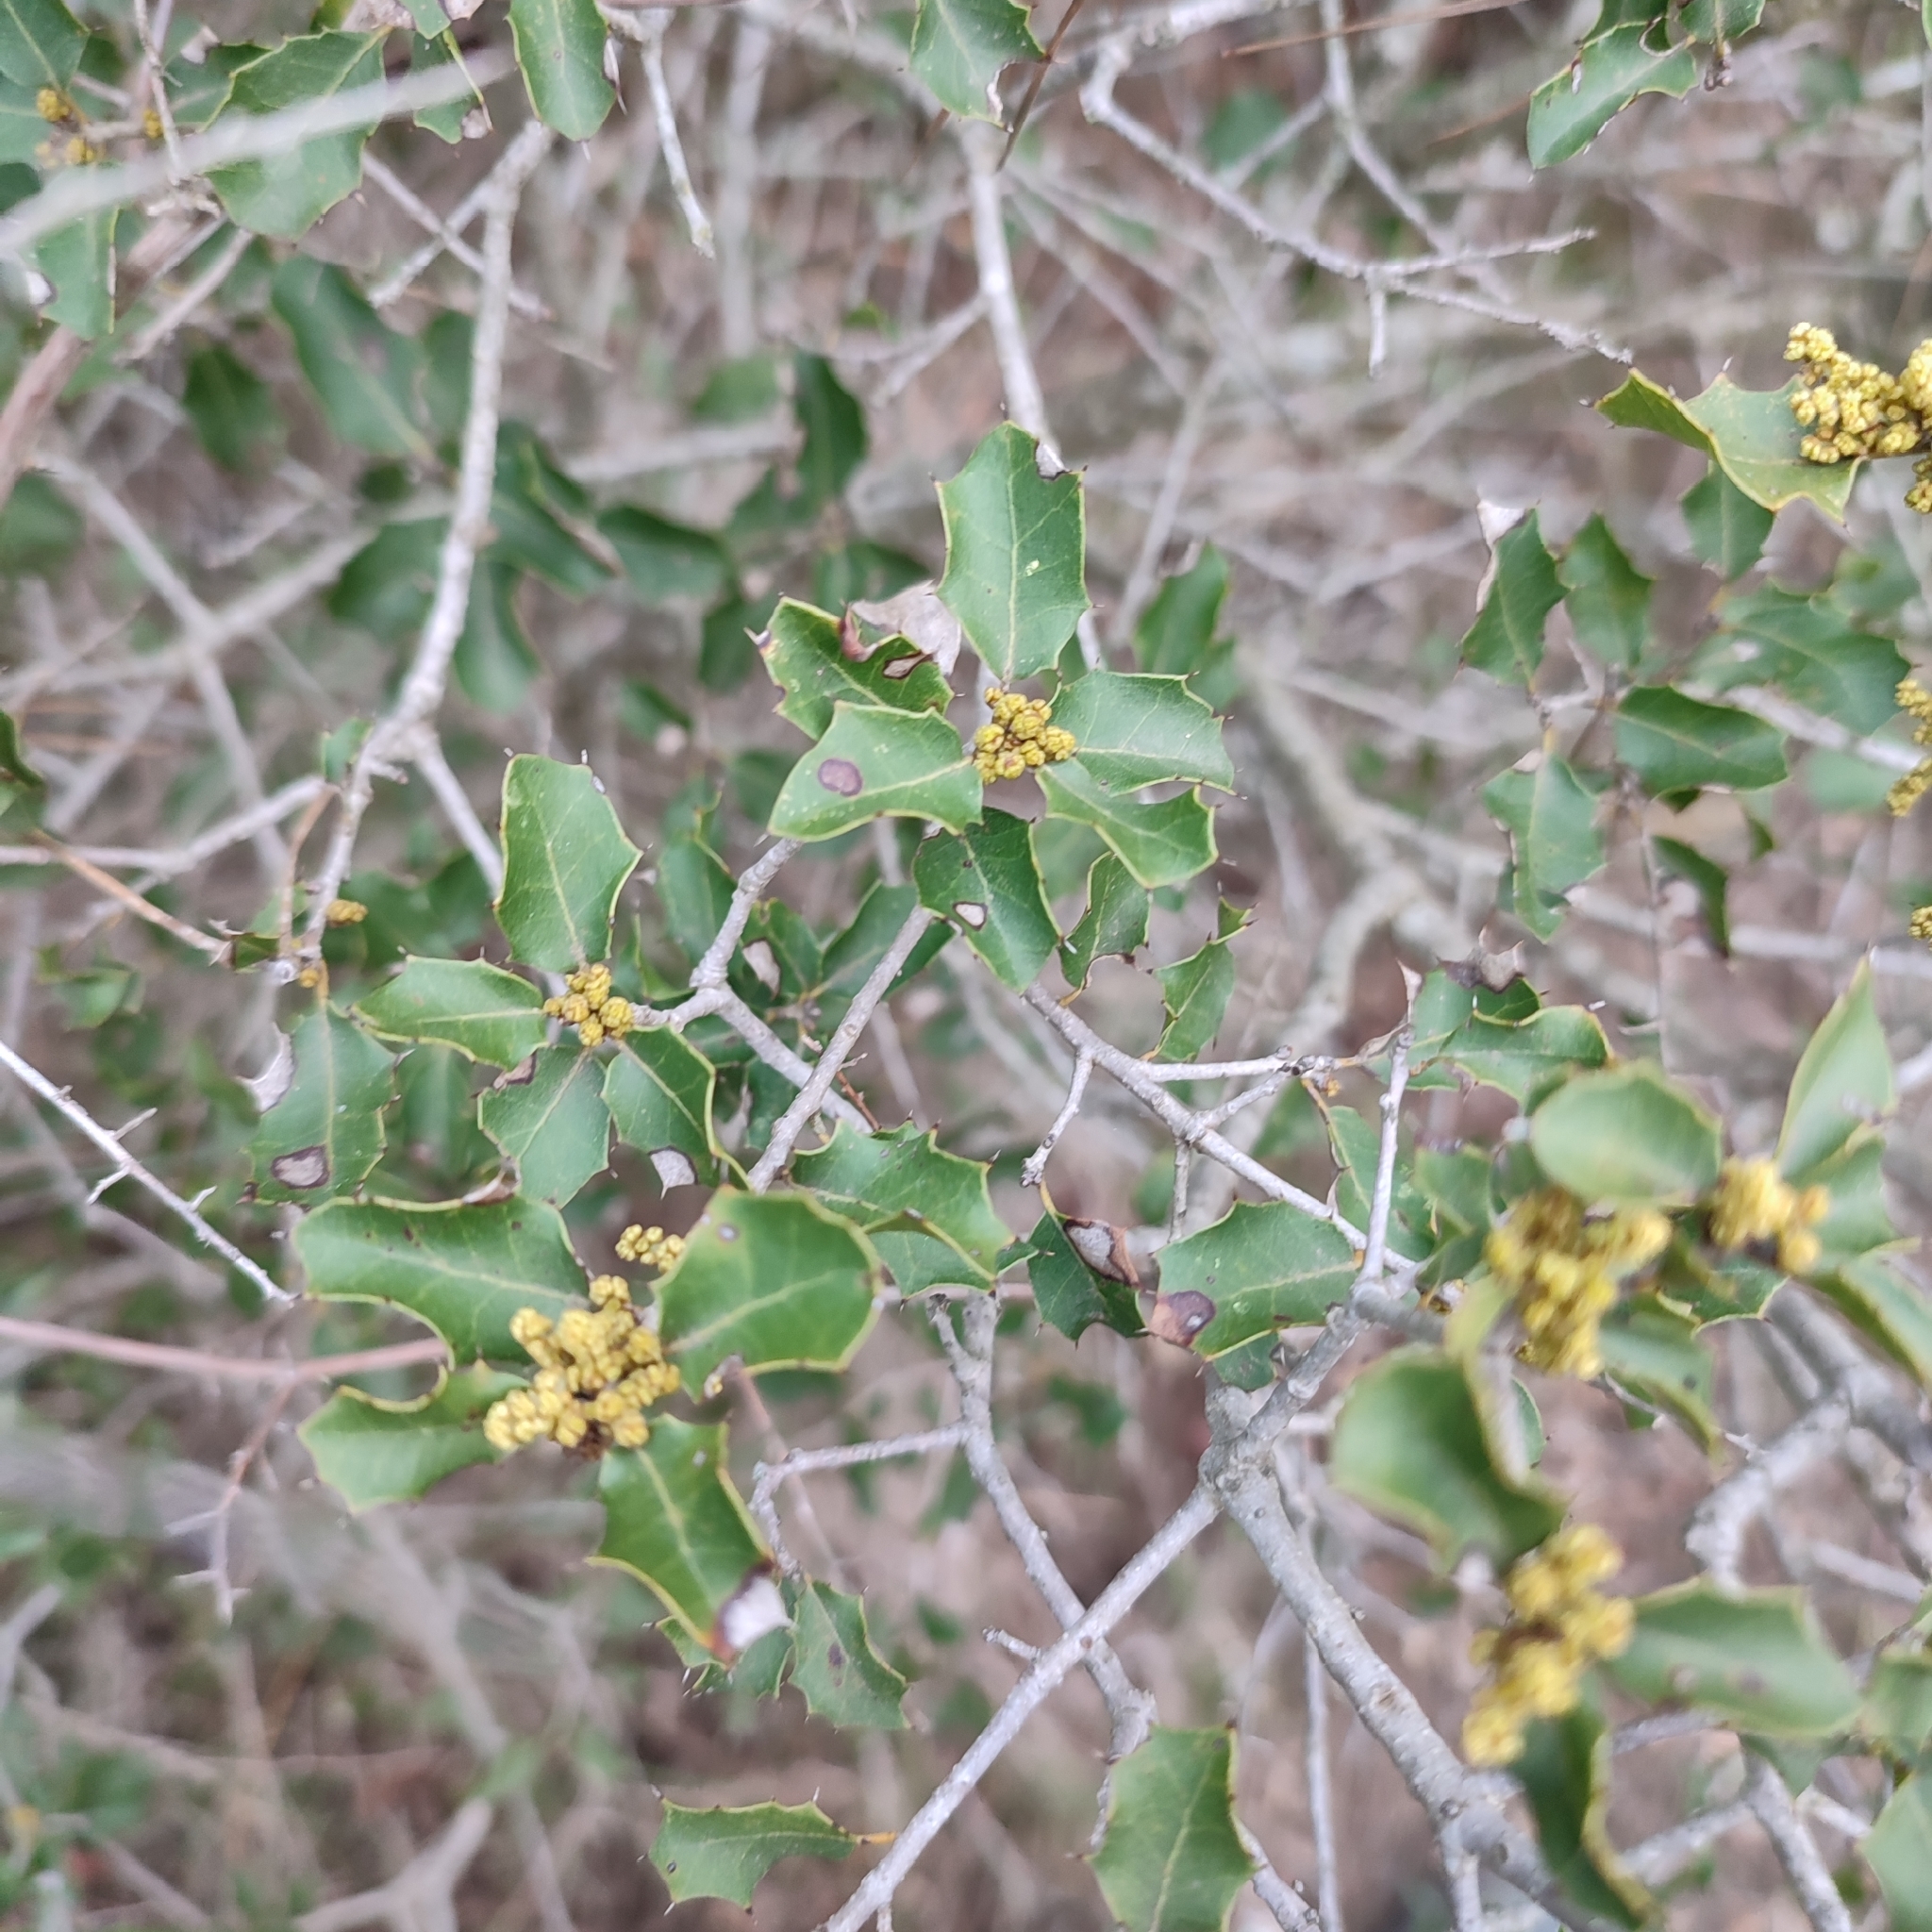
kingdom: Plantae
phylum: Tracheophyta
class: Magnoliopsida
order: Fagales
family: Fagaceae
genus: Quercus
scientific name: Quercus coccifera
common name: Kermes oak
